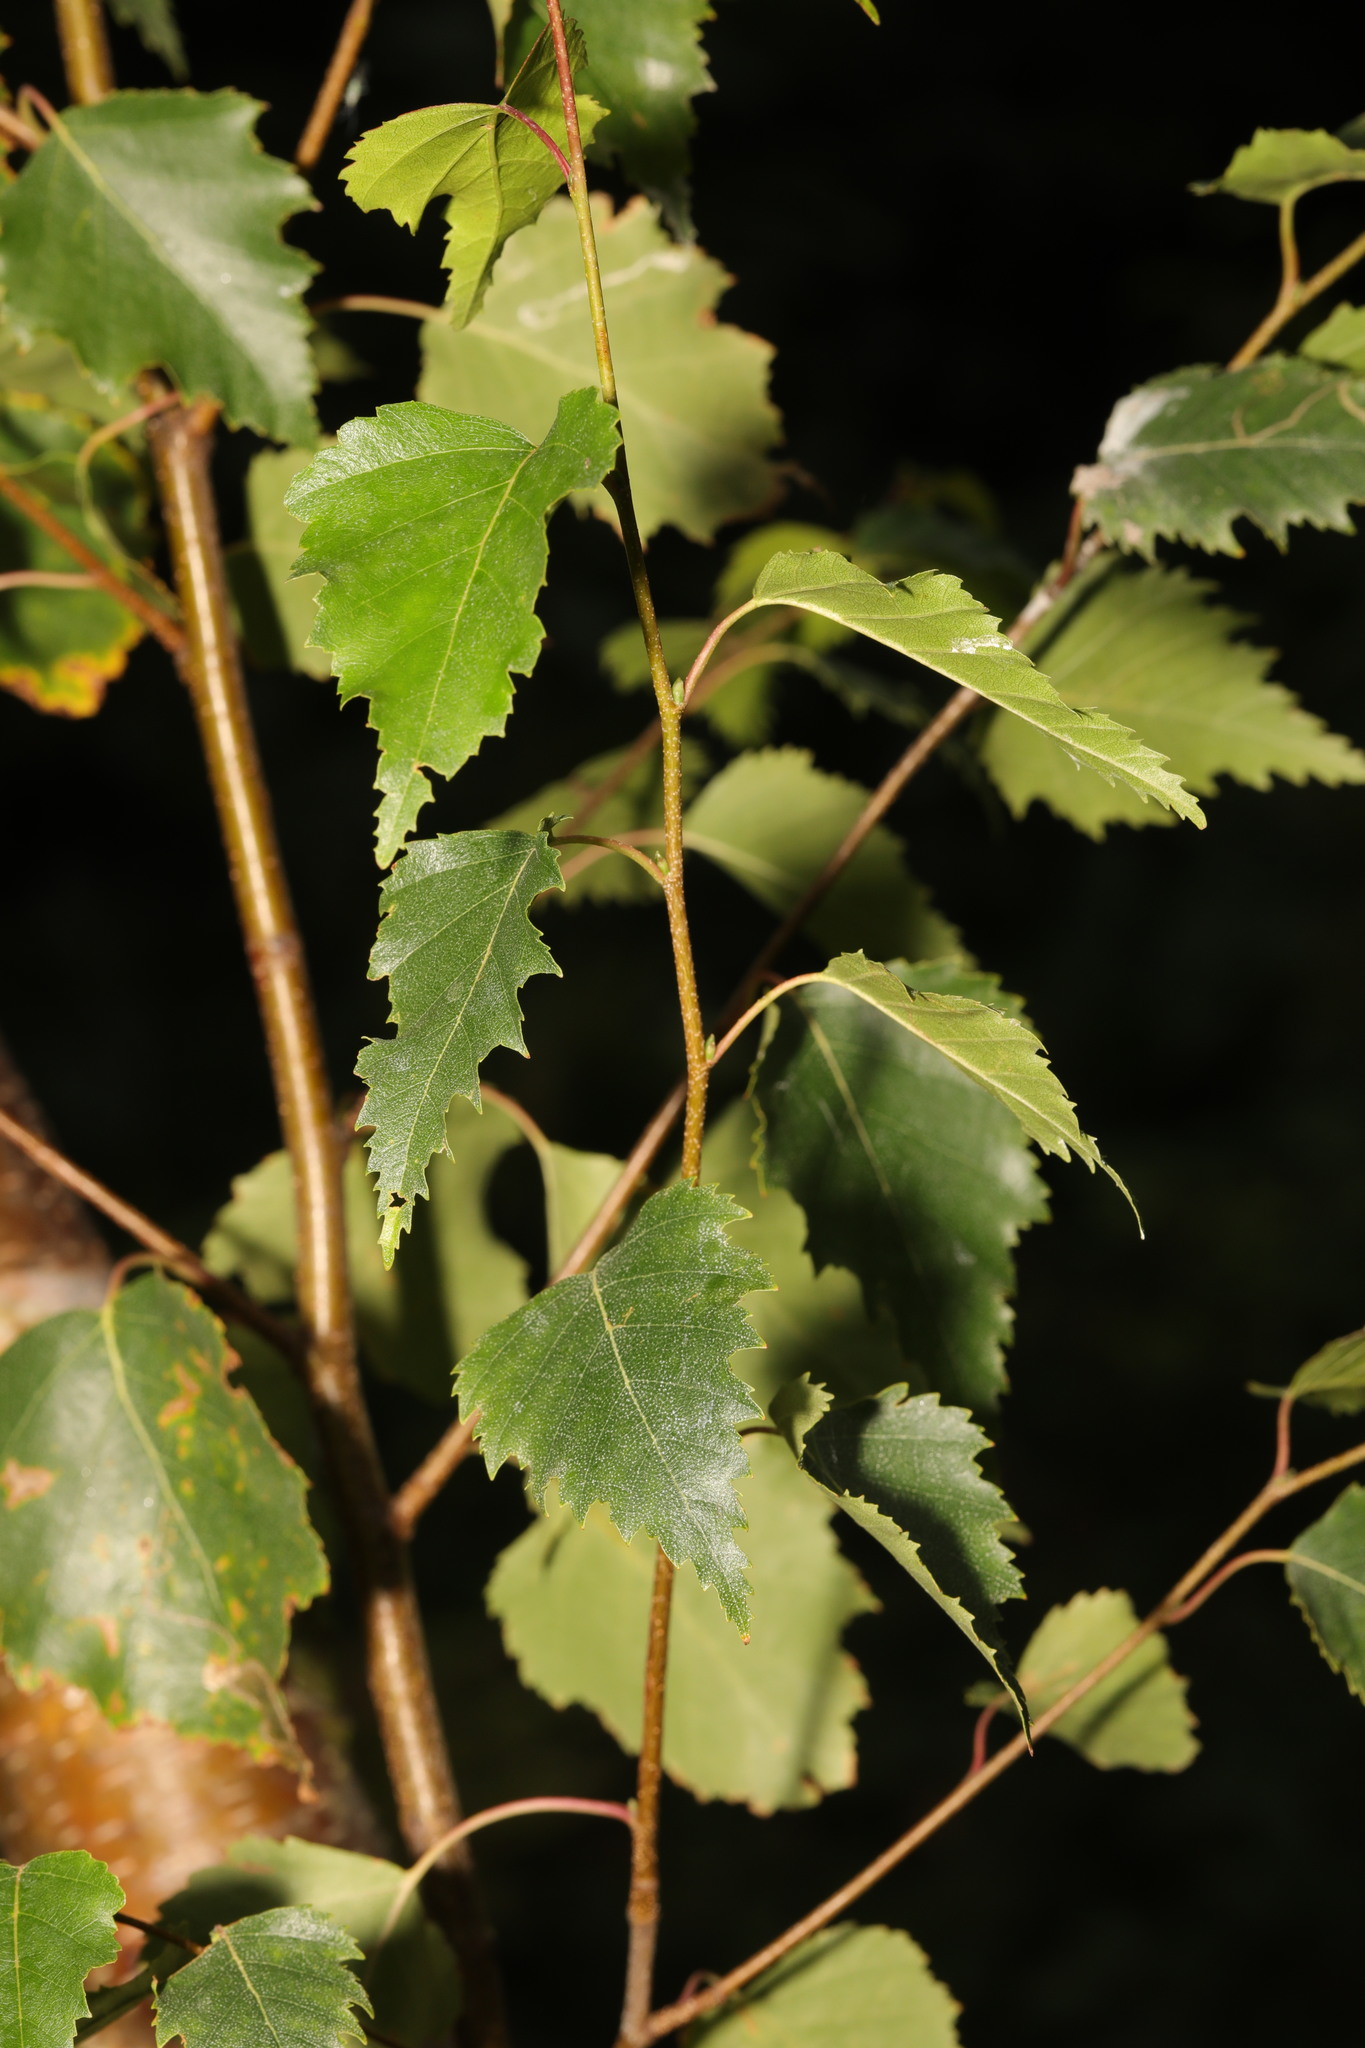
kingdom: Plantae
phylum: Tracheophyta
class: Magnoliopsida
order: Fagales
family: Betulaceae
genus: Betula
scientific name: Betula pendula
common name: Silver birch
